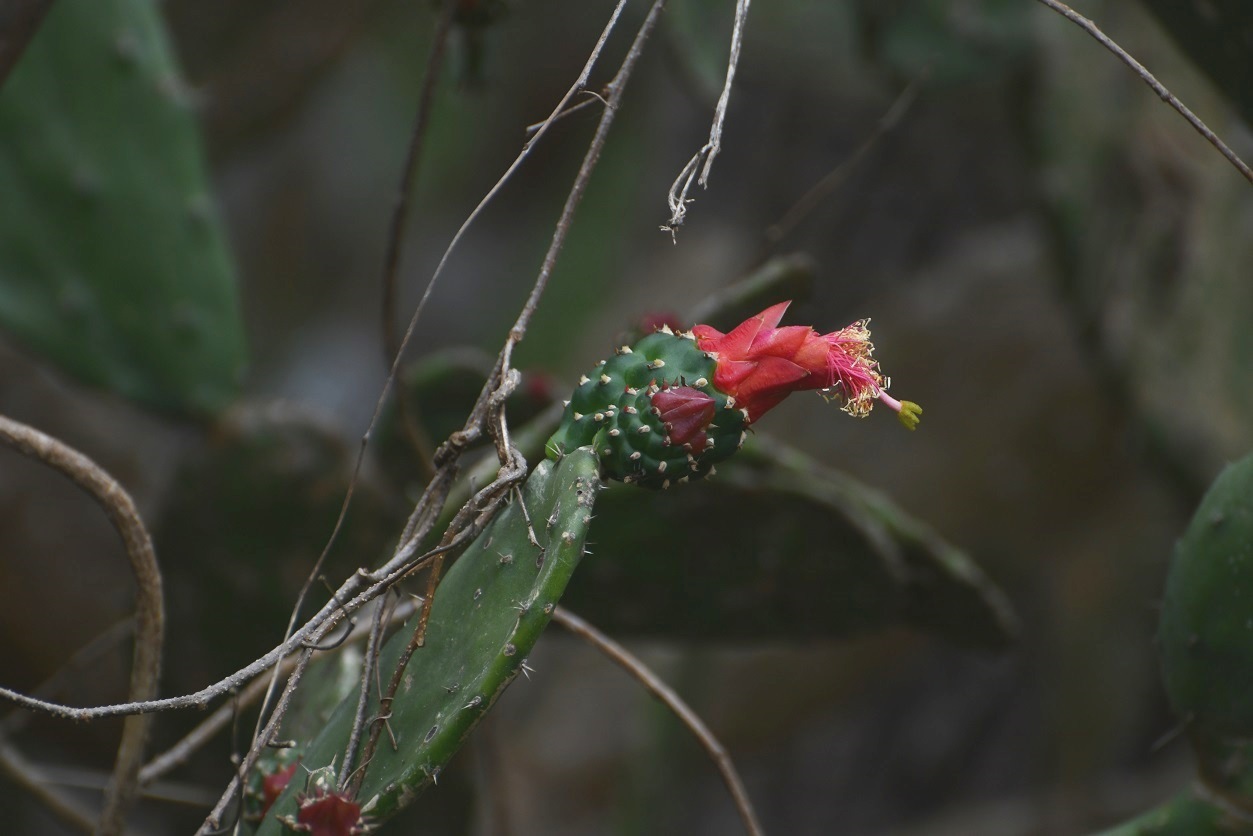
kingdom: Plantae
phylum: Tracheophyta
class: Magnoliopsida
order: Caryophyllales
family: Cactaceae
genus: Opuntia
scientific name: Opuntia dejecta
